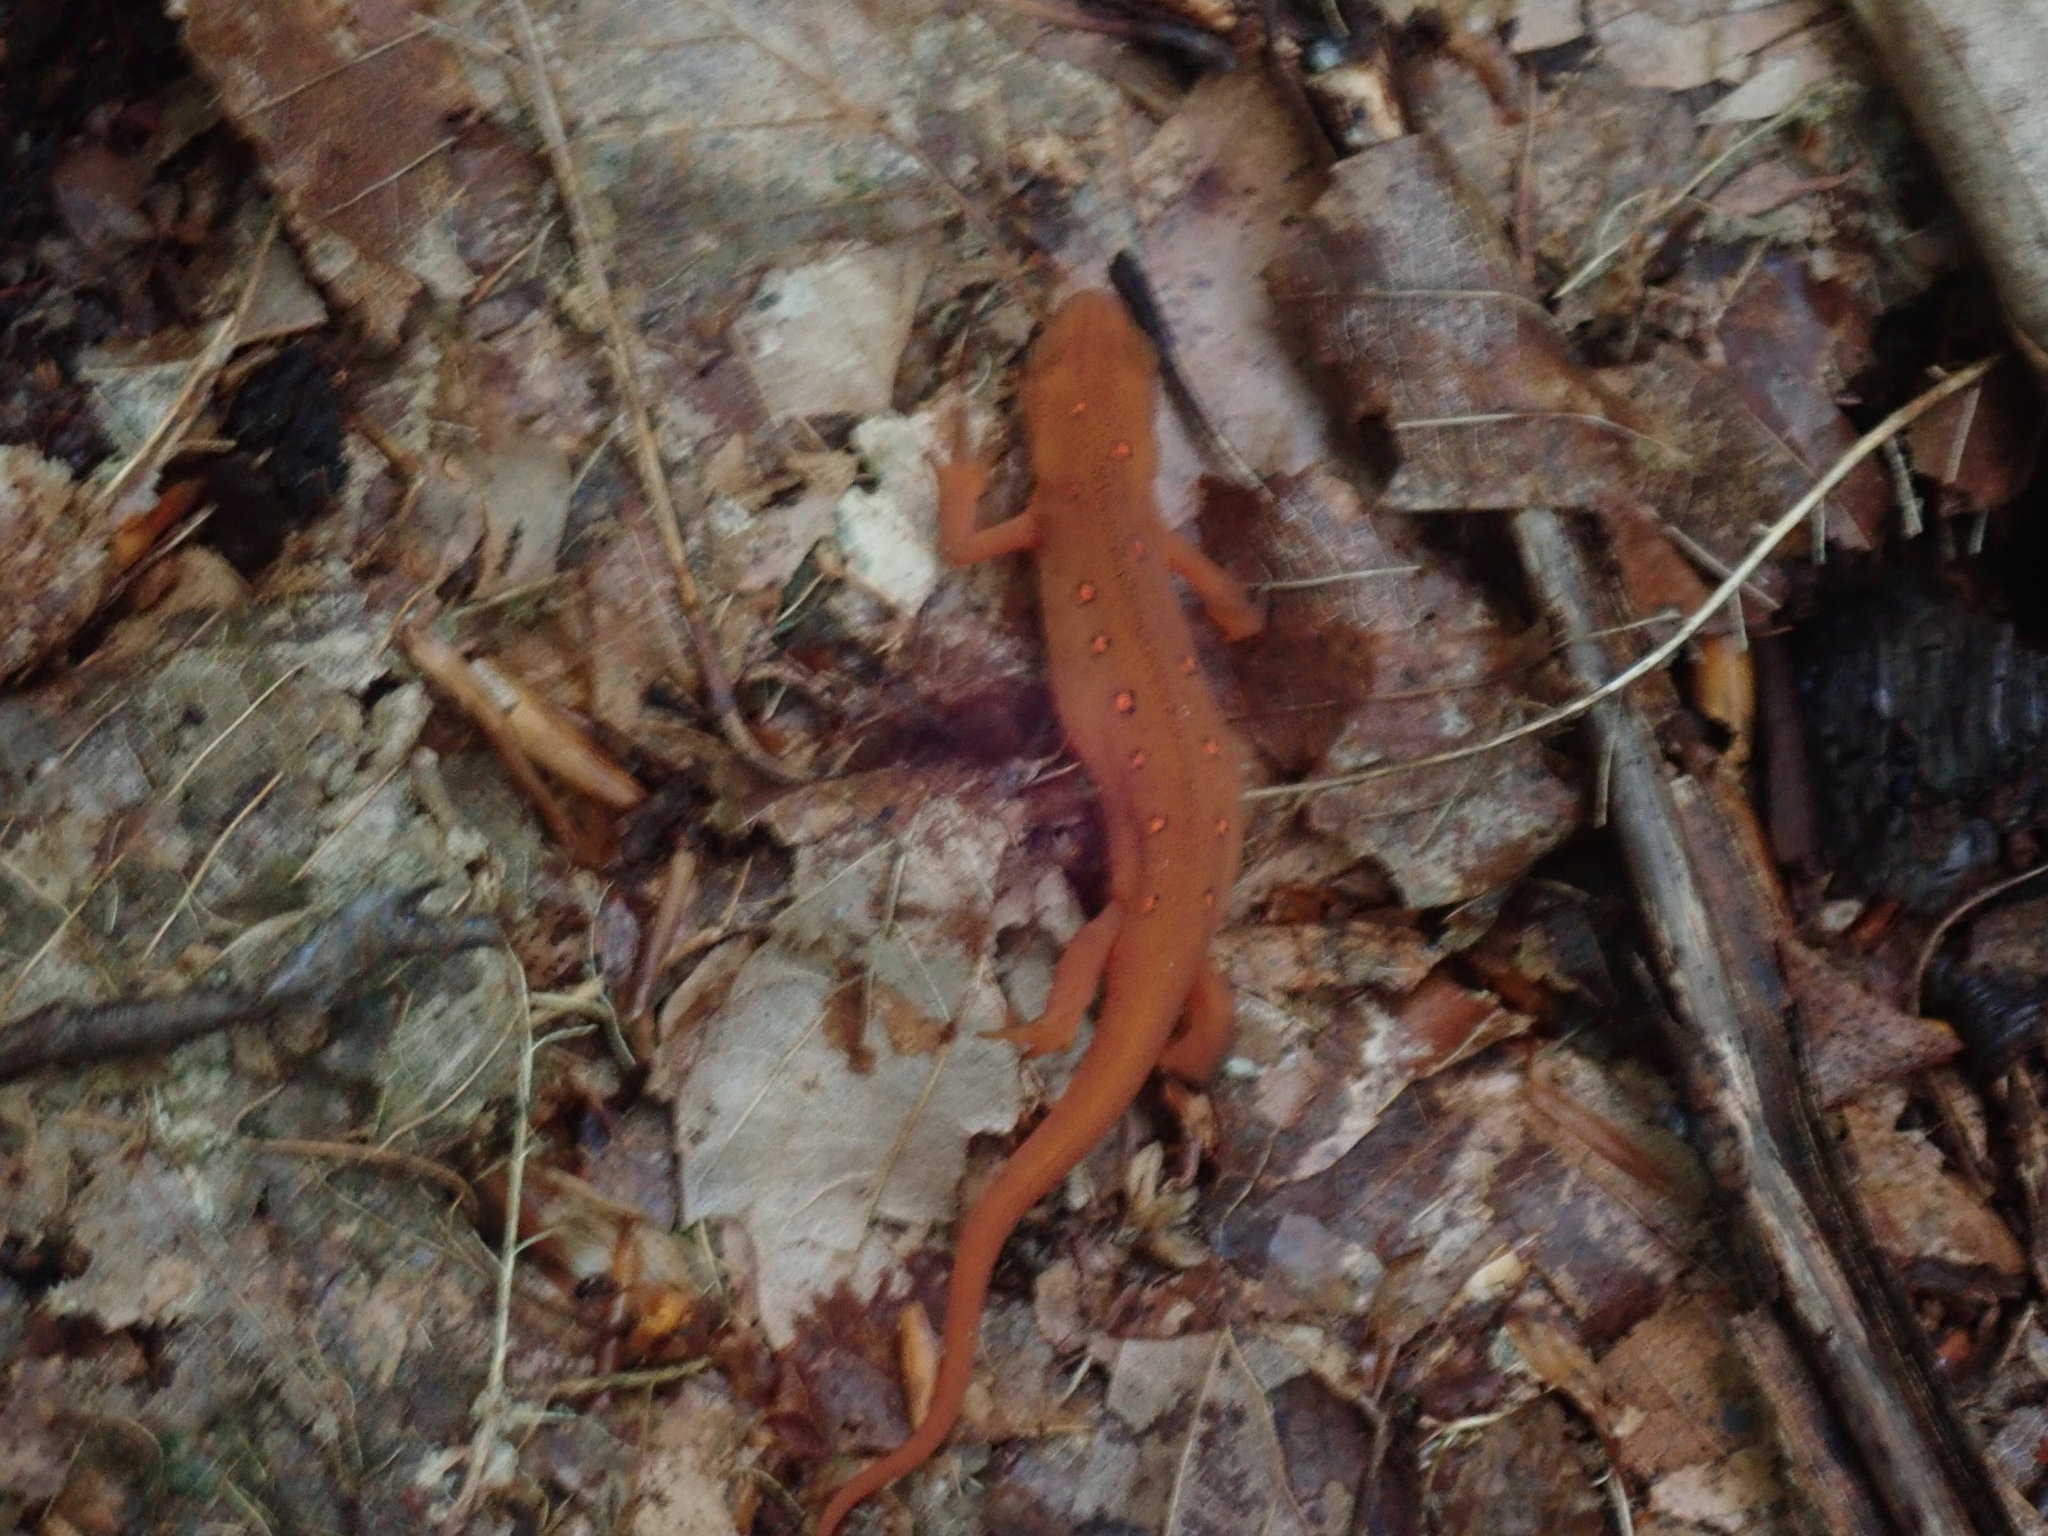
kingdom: Animalia
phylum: Chordata
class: Amphibia
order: Caudata
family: Salamandridae
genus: Notophthalmus
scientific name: Notophthalmus viridescens
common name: Eastern newt
